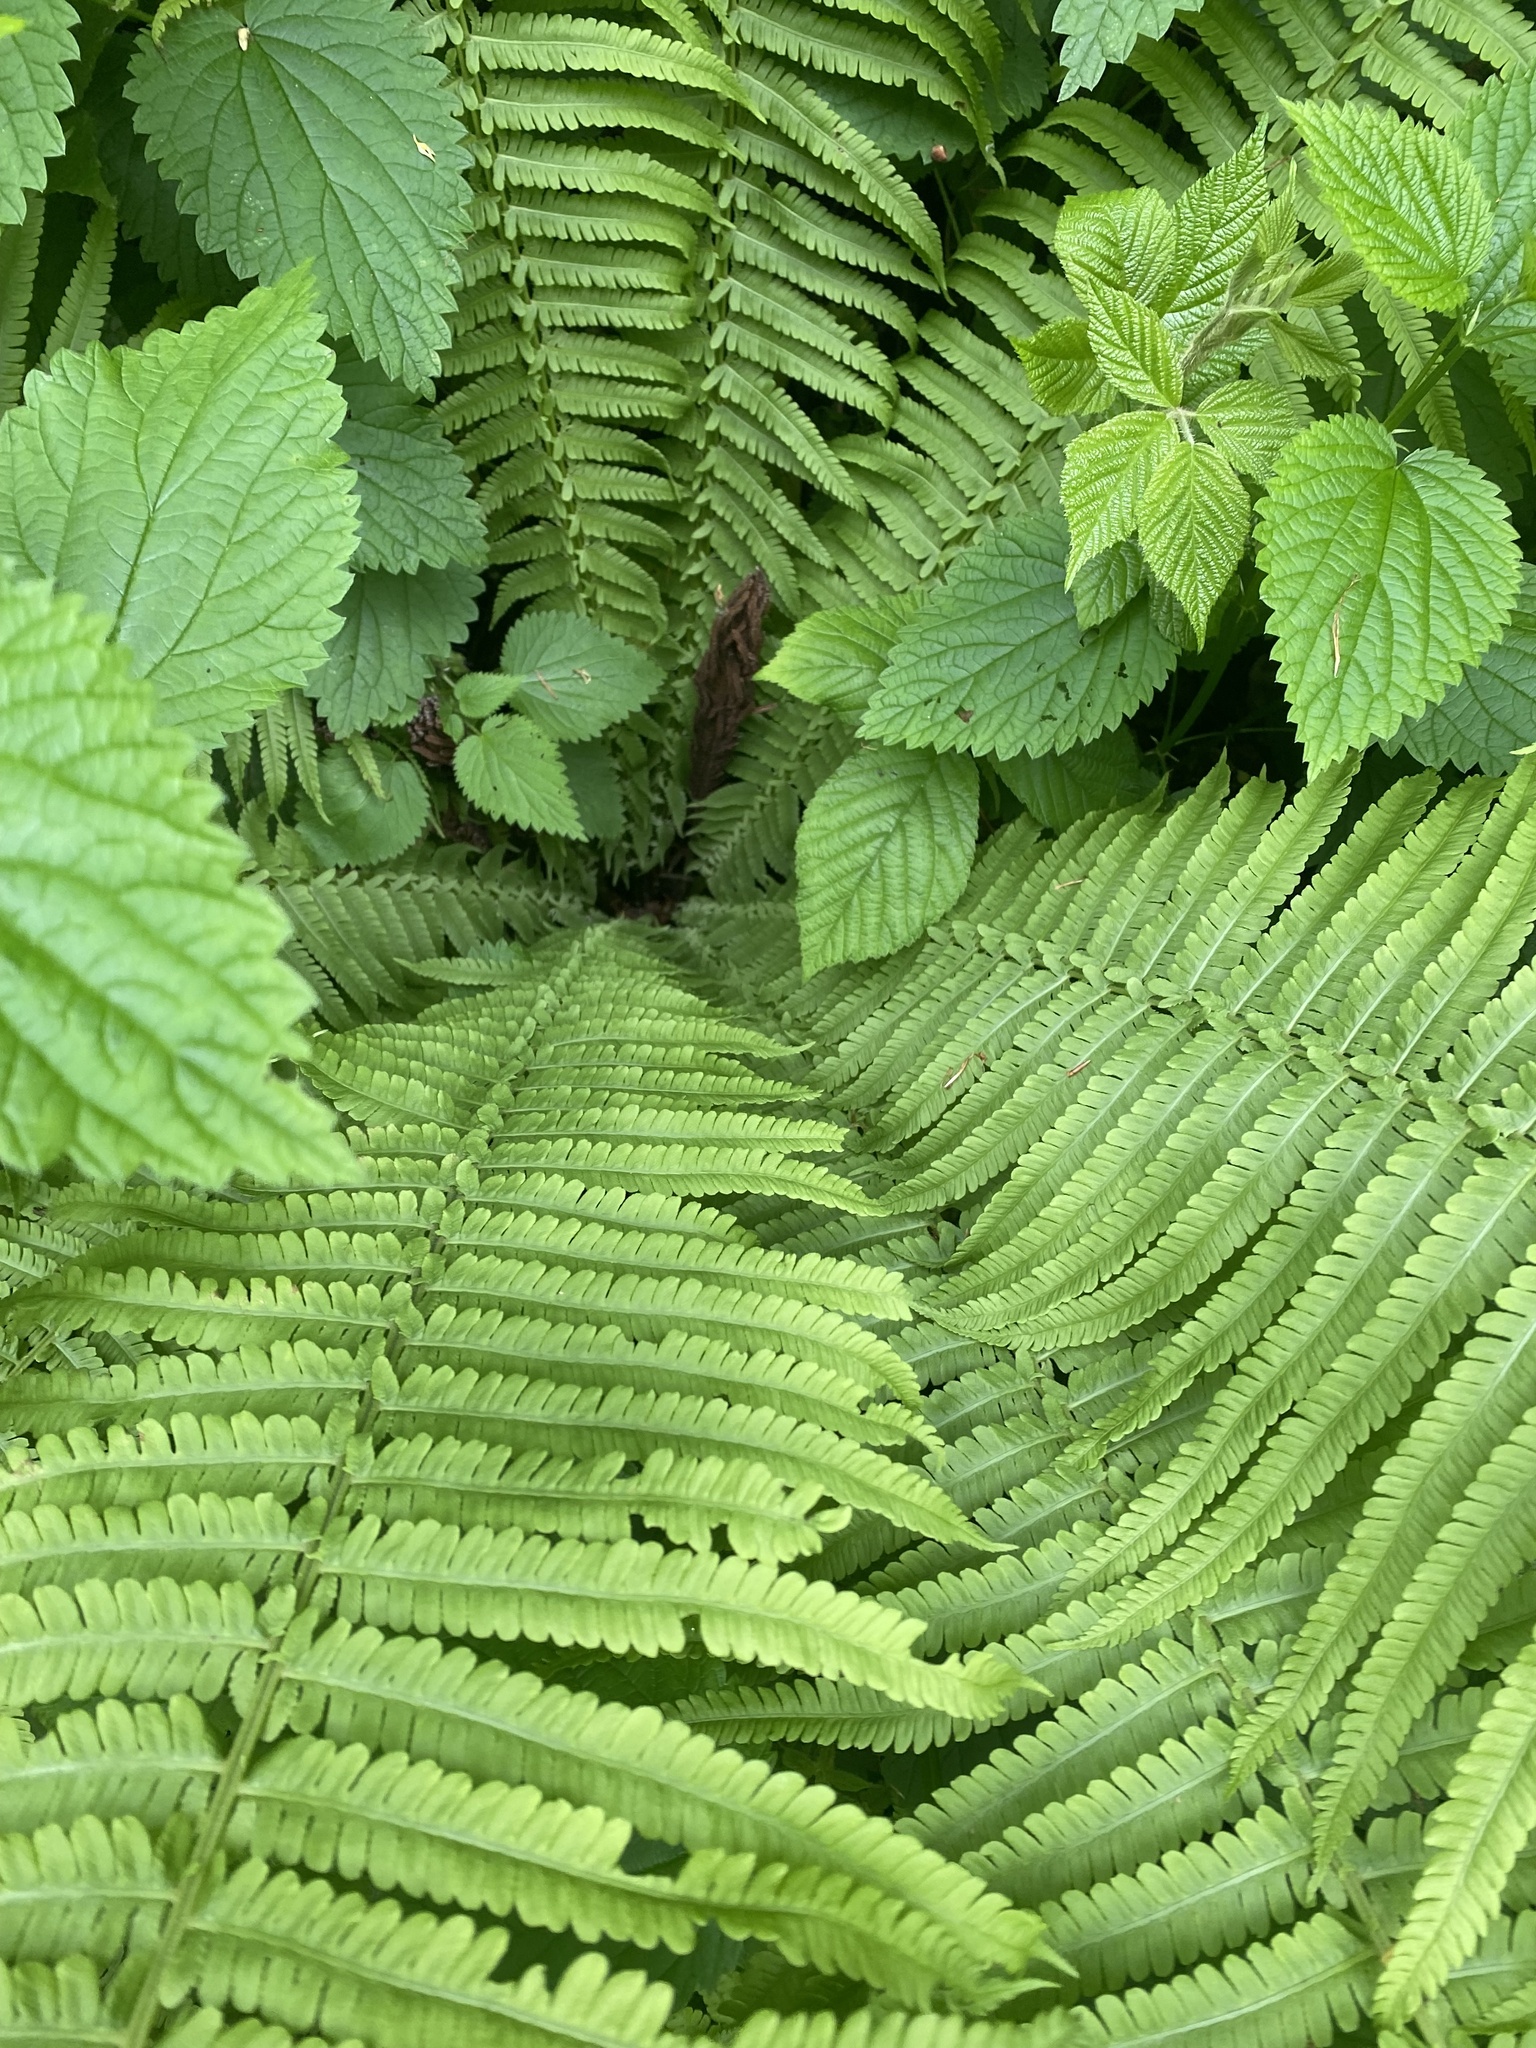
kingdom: Plantae
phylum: Tracheophyta
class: Polypodiopsida
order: Polypodiales
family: Onocleaceae
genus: Matteuccia
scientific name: Matteuccia struthiopteris
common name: Ostrich fern
